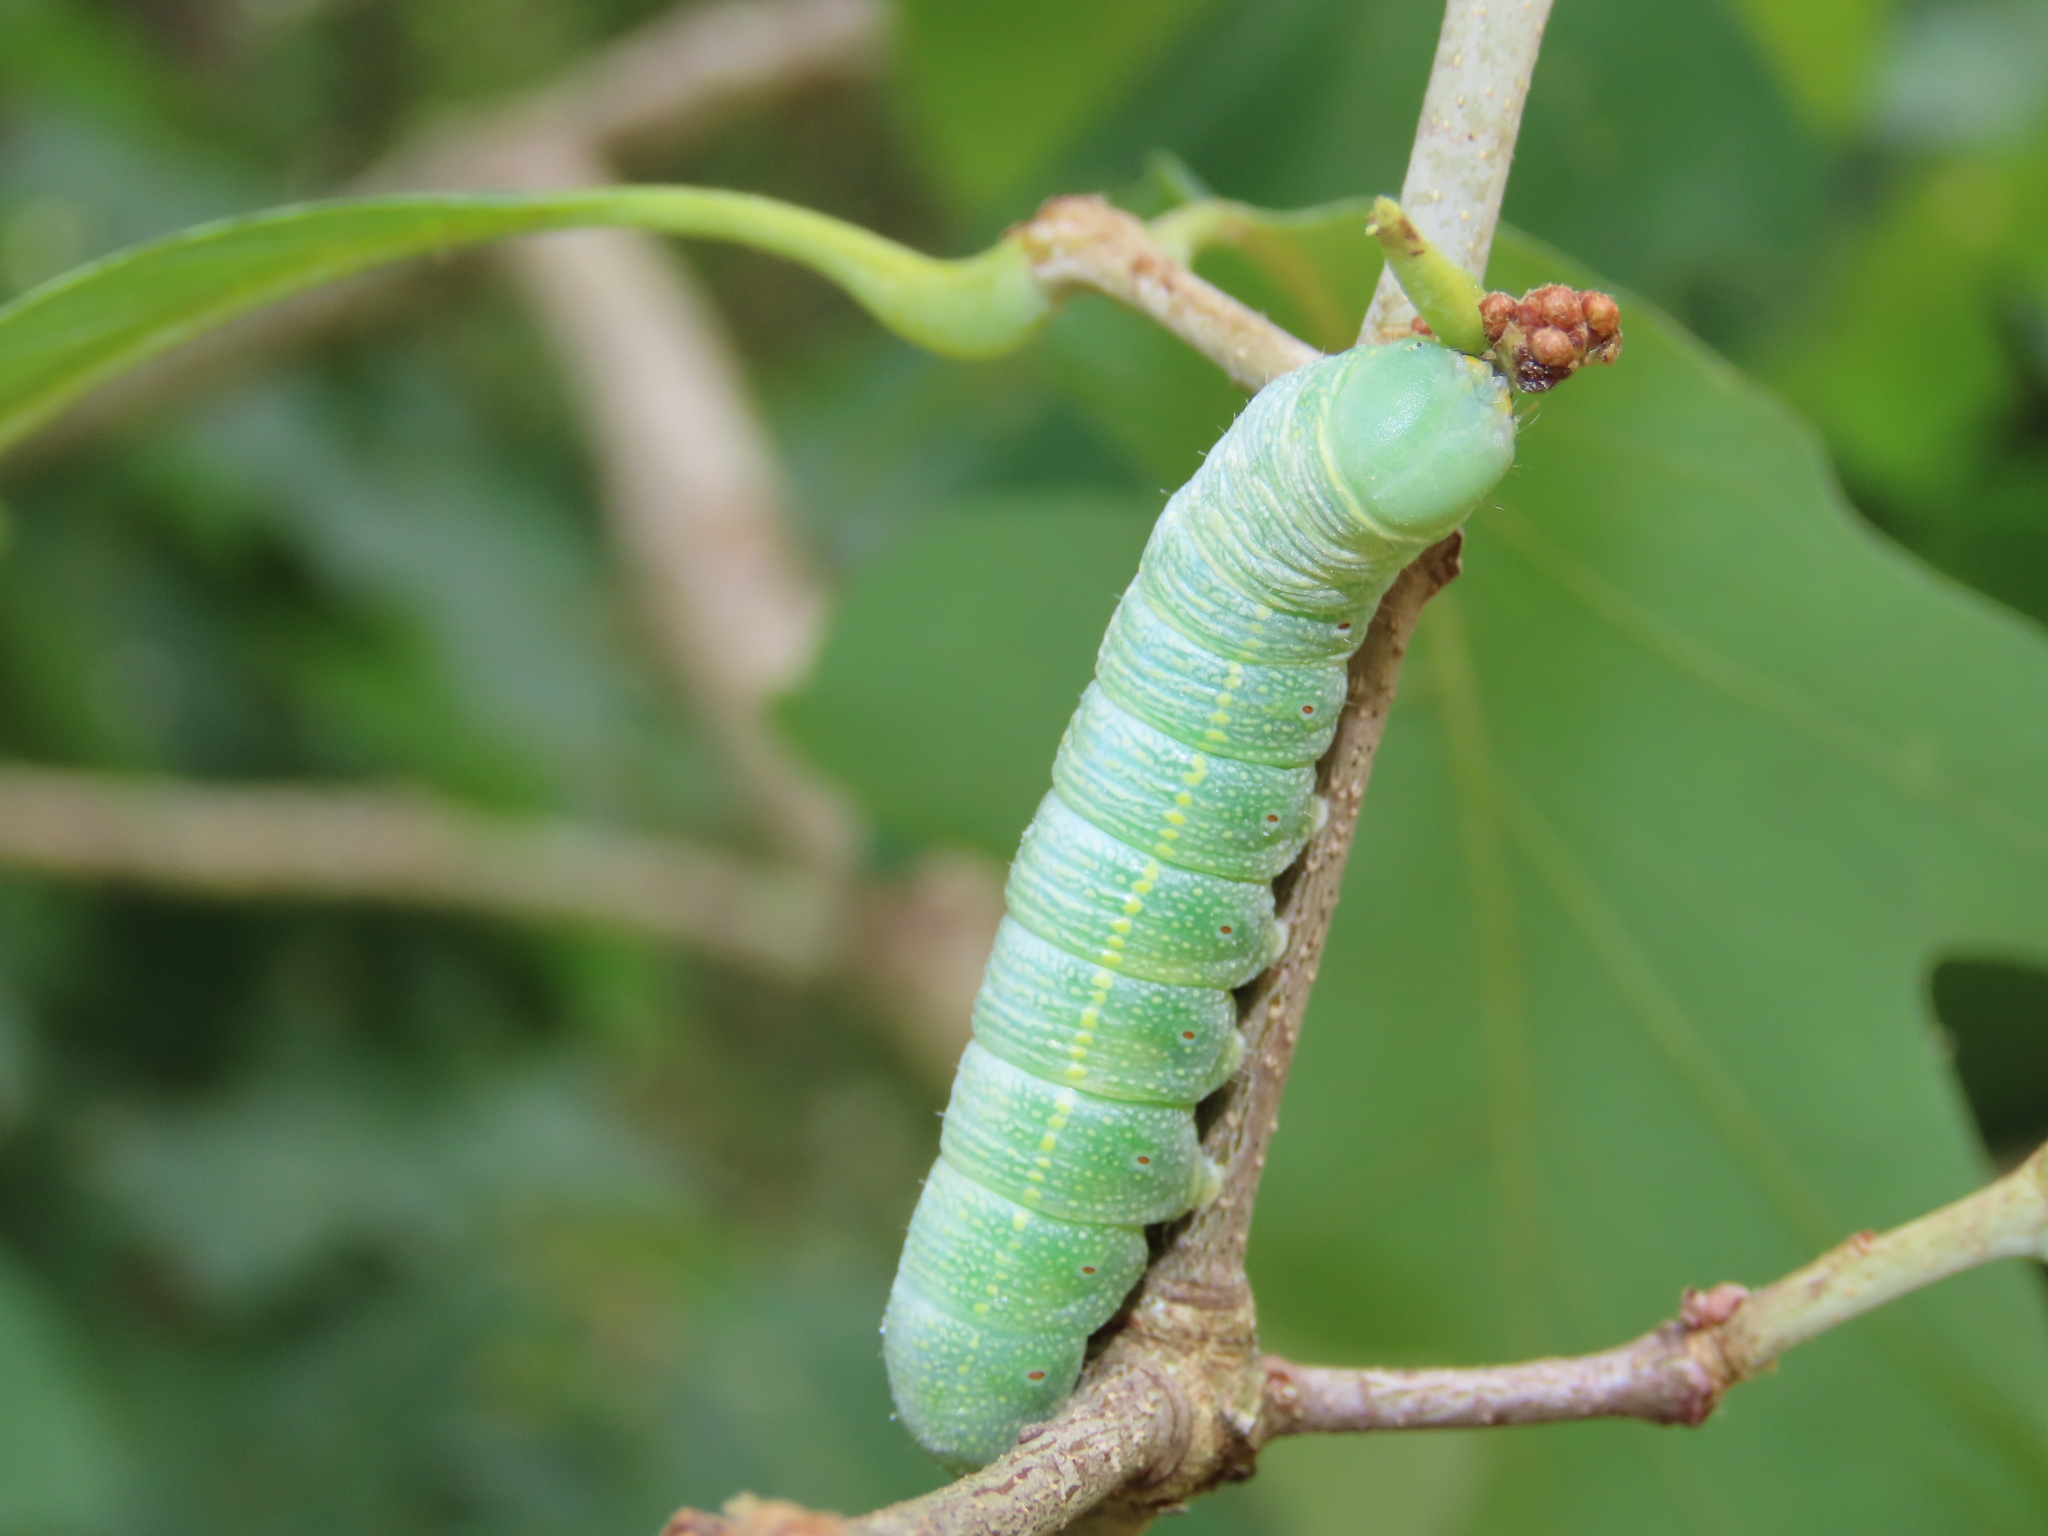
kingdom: Animalia
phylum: Arthropoda
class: Insecta
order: Lepidoptera
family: Notodontidae
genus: Nadata
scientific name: Nadata gibbosa
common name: White-dotted prominent
